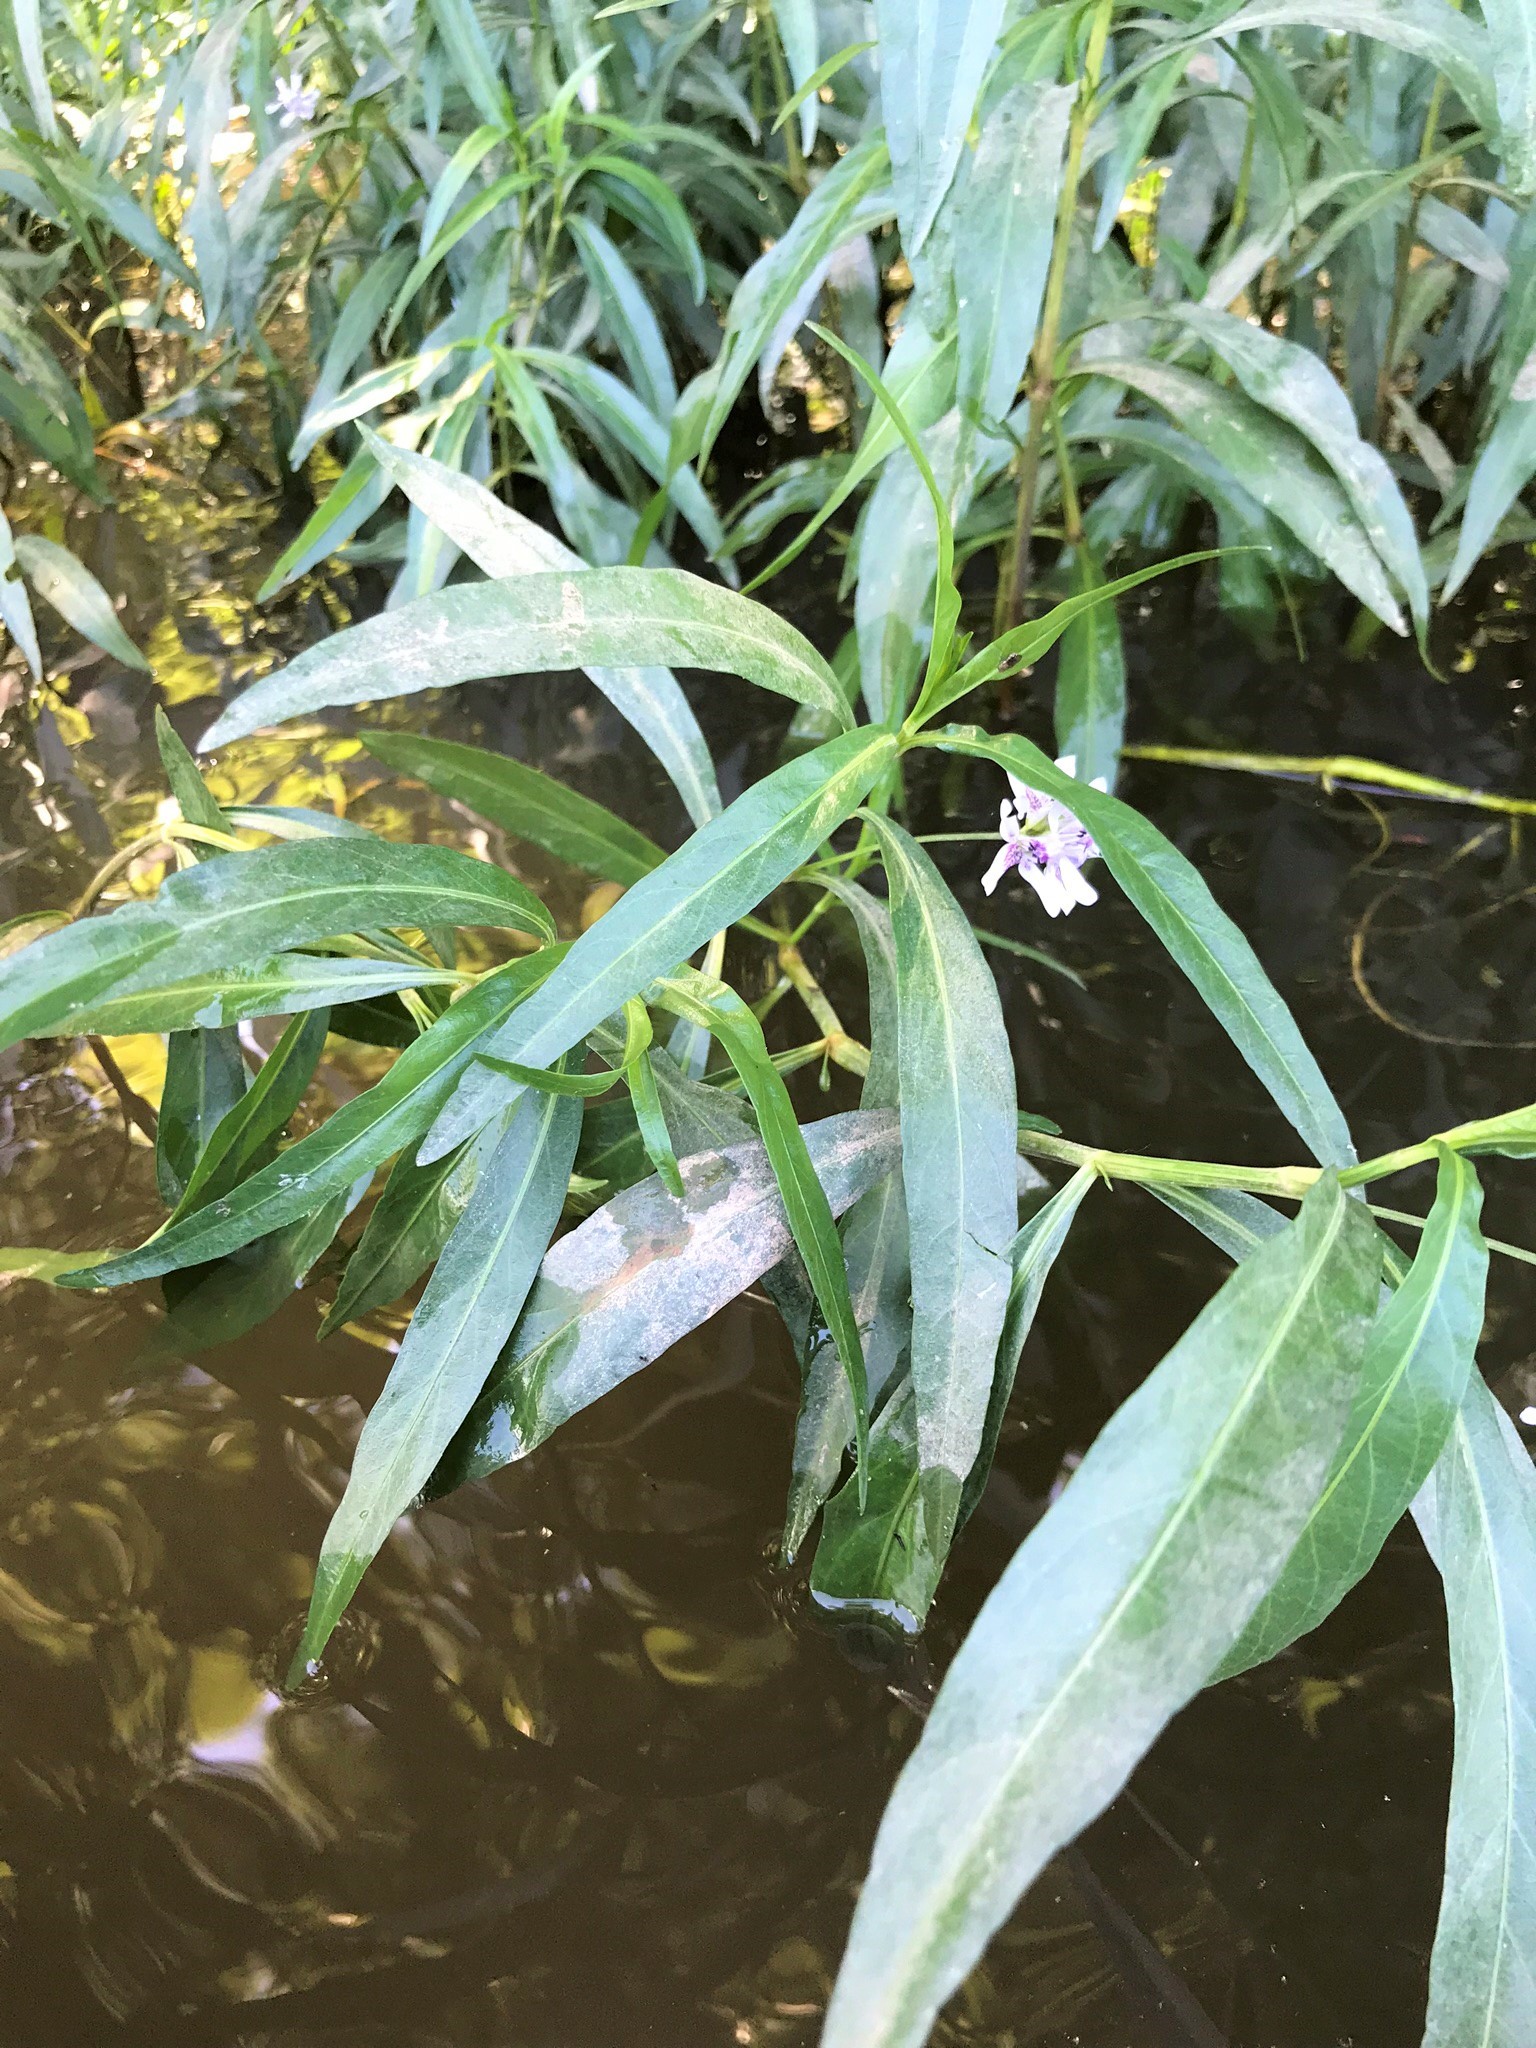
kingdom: Plantae
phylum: Tracheophyta
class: Magnoliopsida
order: Lamiales
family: Acanthaceae
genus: Dianthera
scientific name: Dianthera americana
